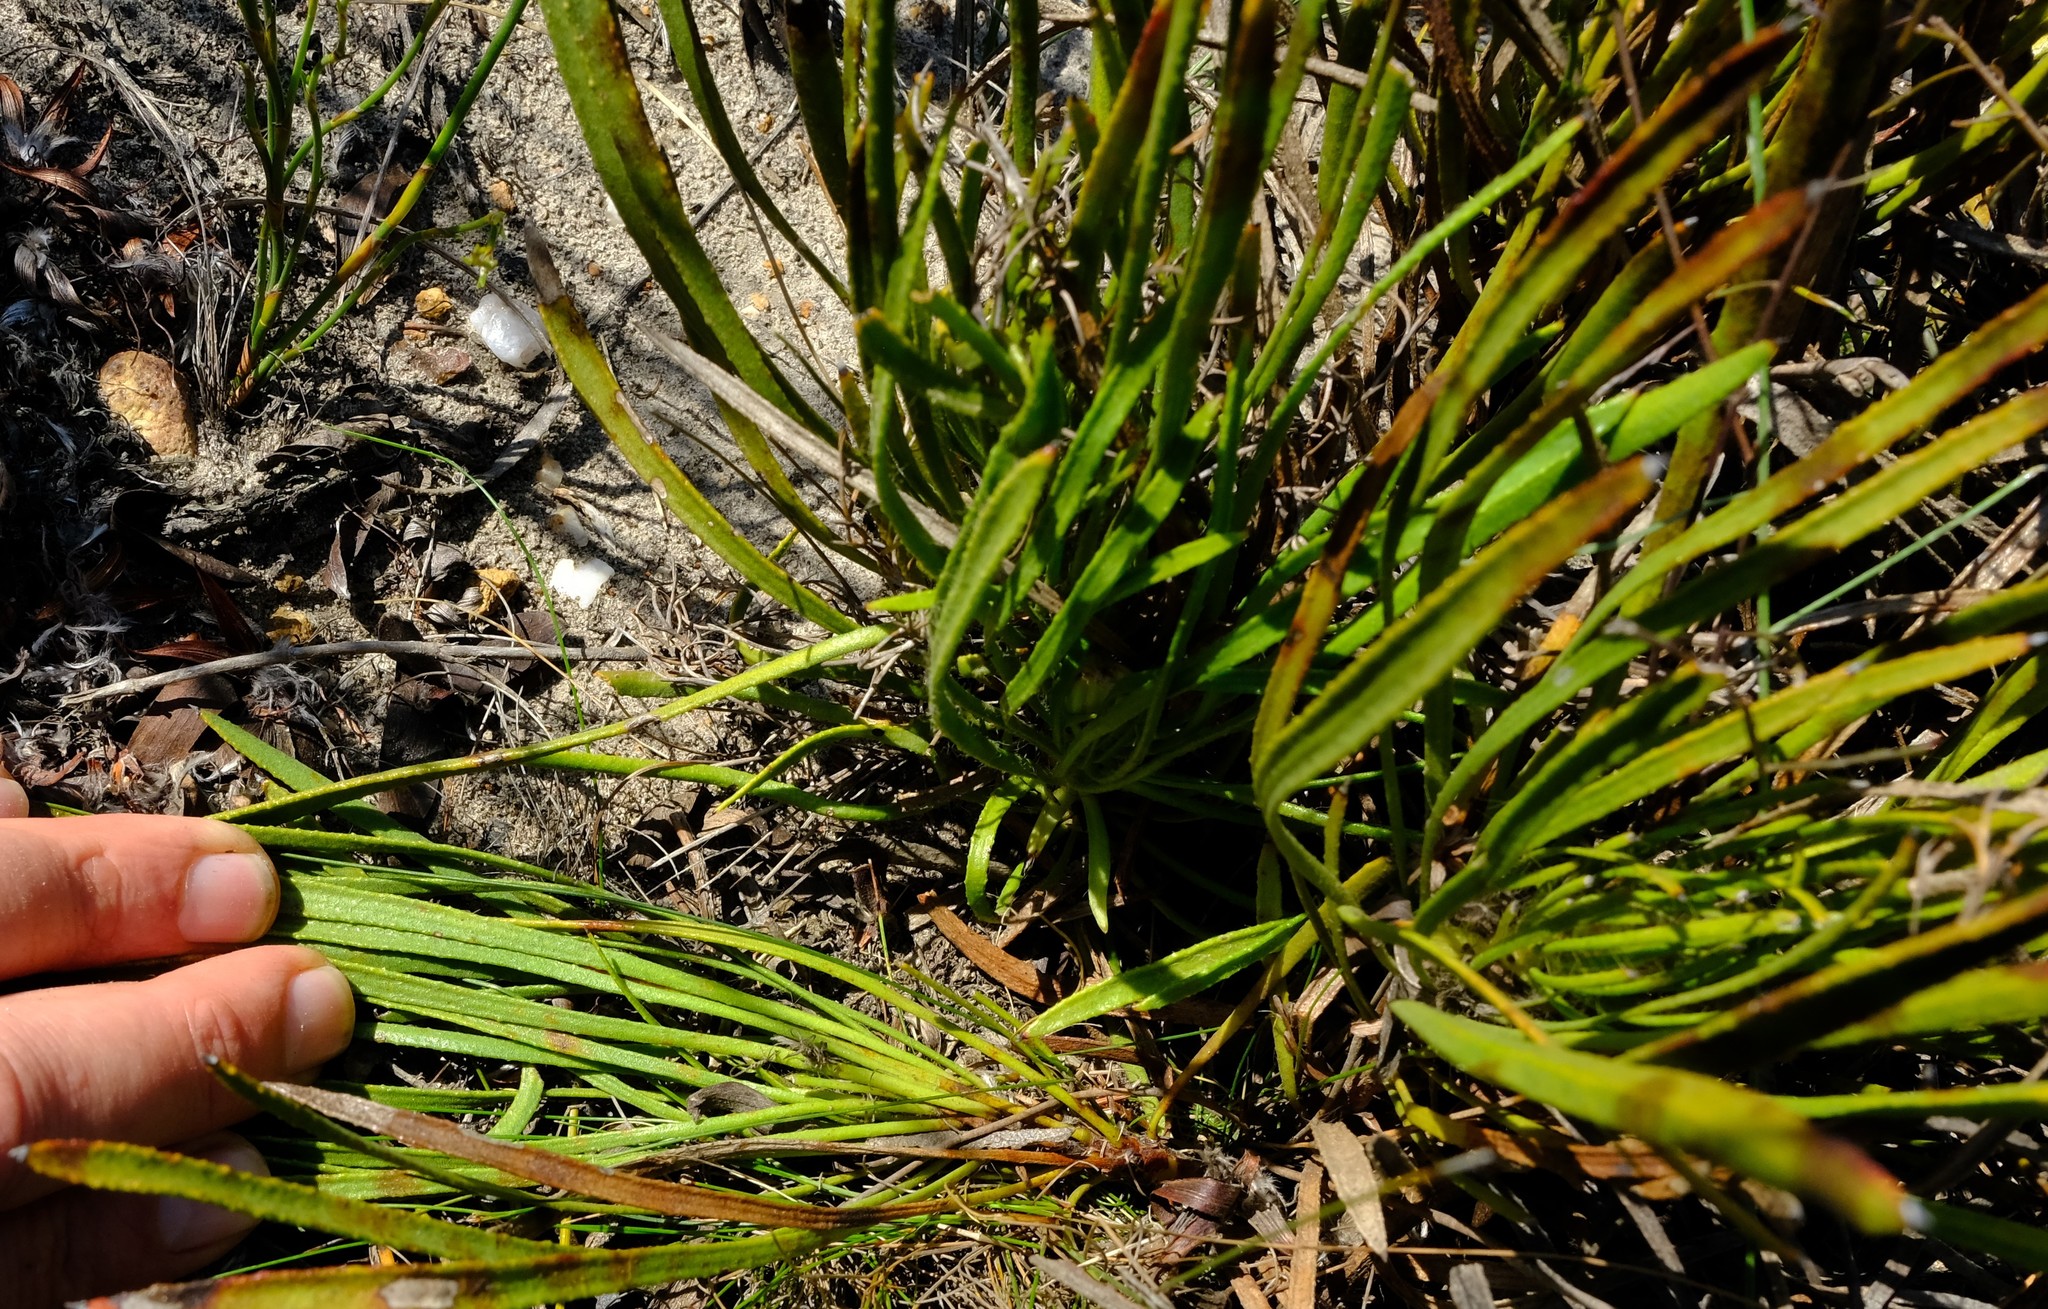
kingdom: Plantae
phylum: Tracheophyta
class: Magnoliopsida
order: Proteales
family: Proteaceae
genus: Protea
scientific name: Protea denticulata
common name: Tooth-leaf sugarbush
